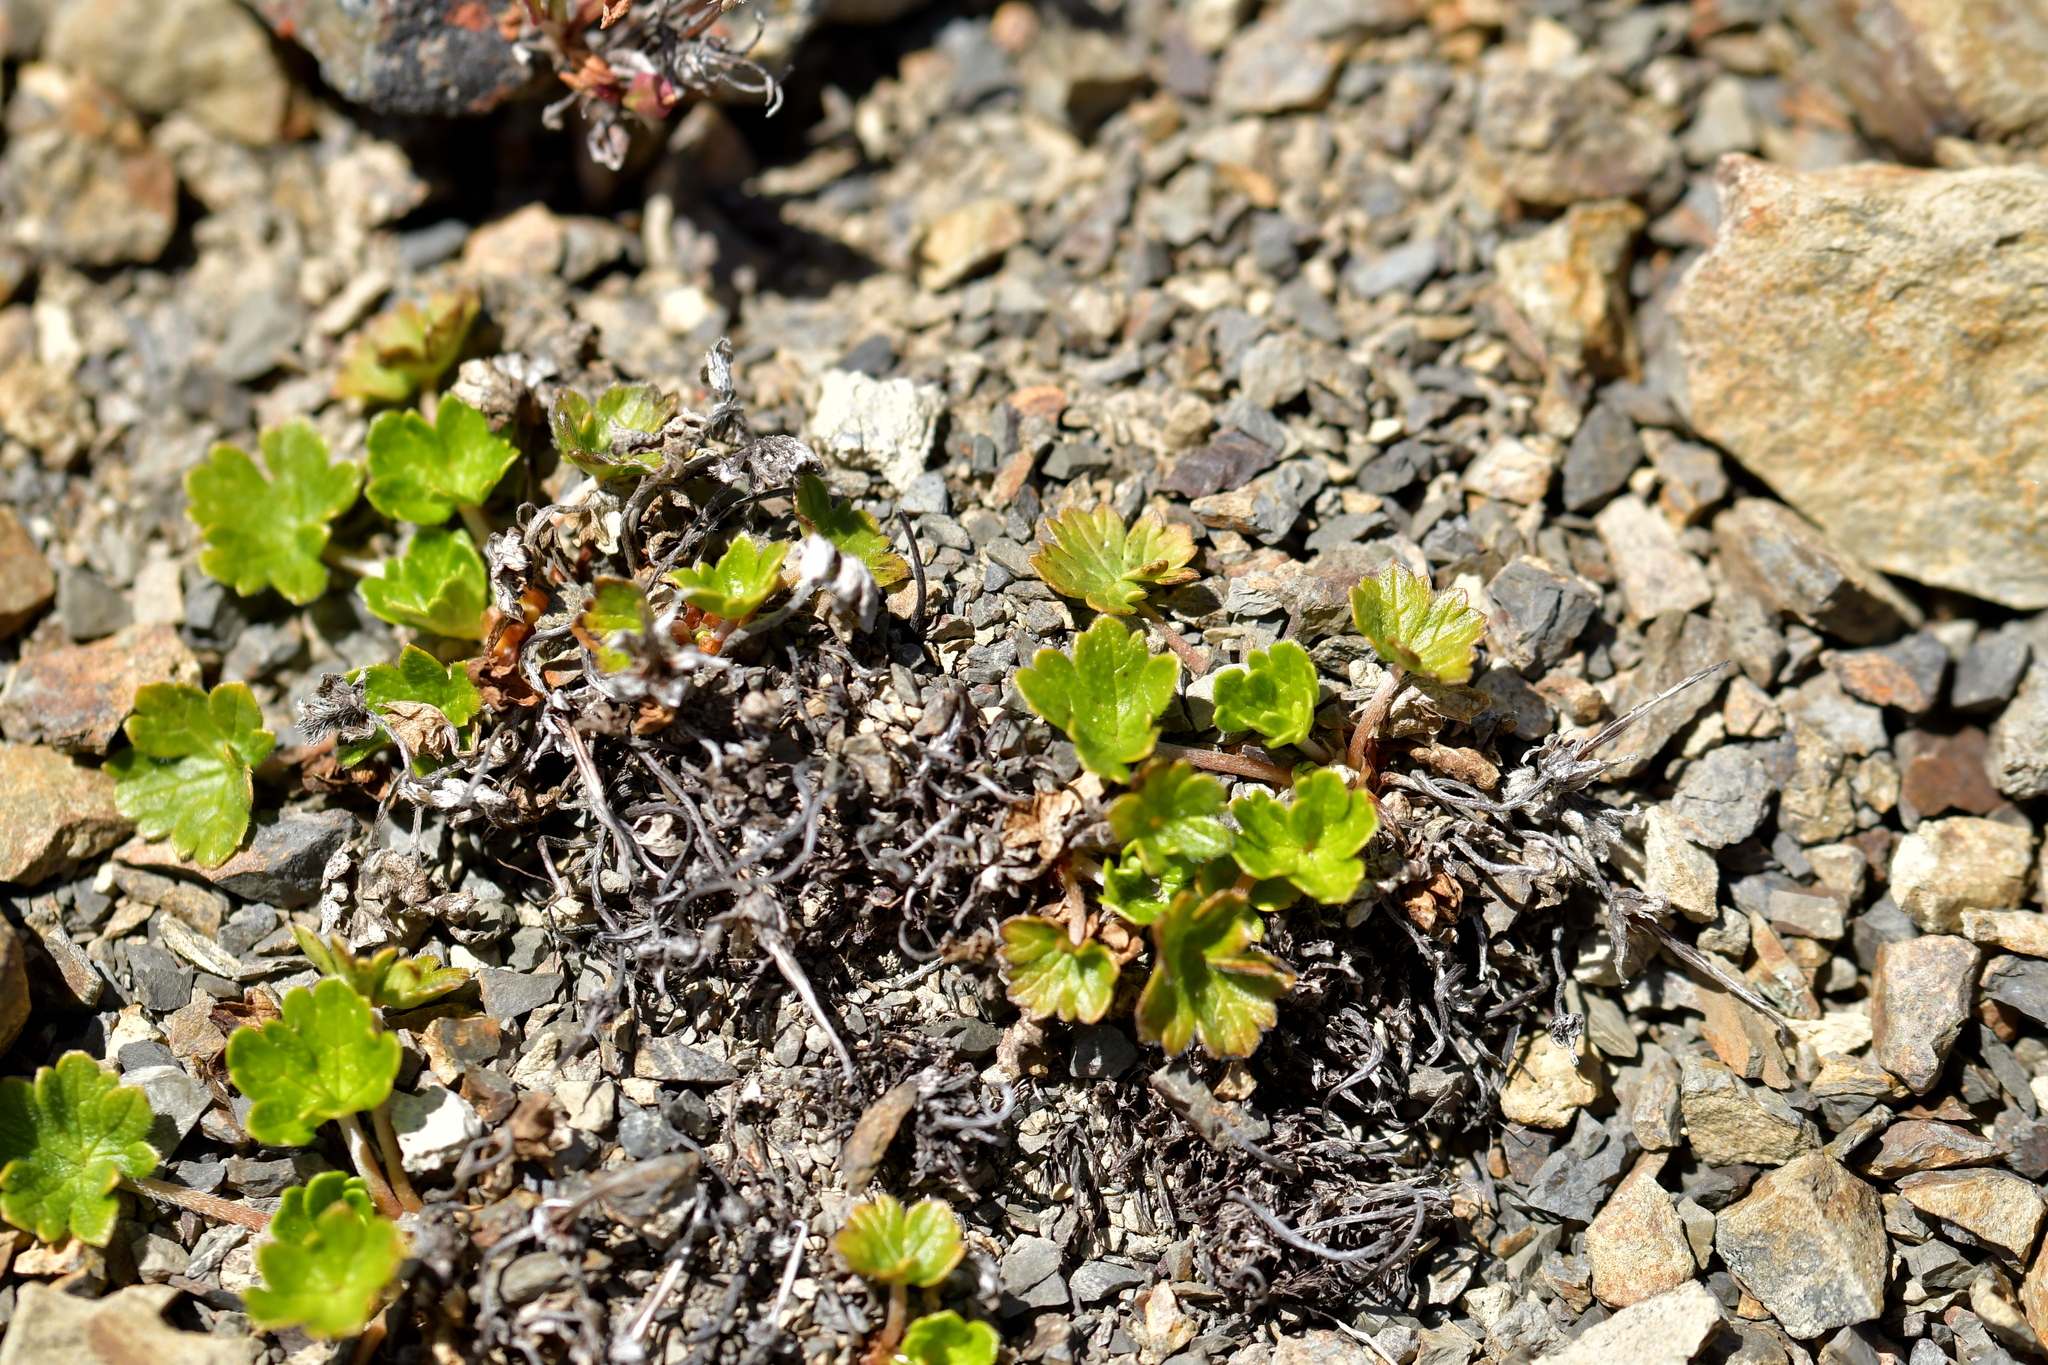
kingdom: Plantae
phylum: Tracheophyta
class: Magnoliopsida
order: Geraniales
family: Geraniaceae
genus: Geranium
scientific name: Geranium brevicaule
